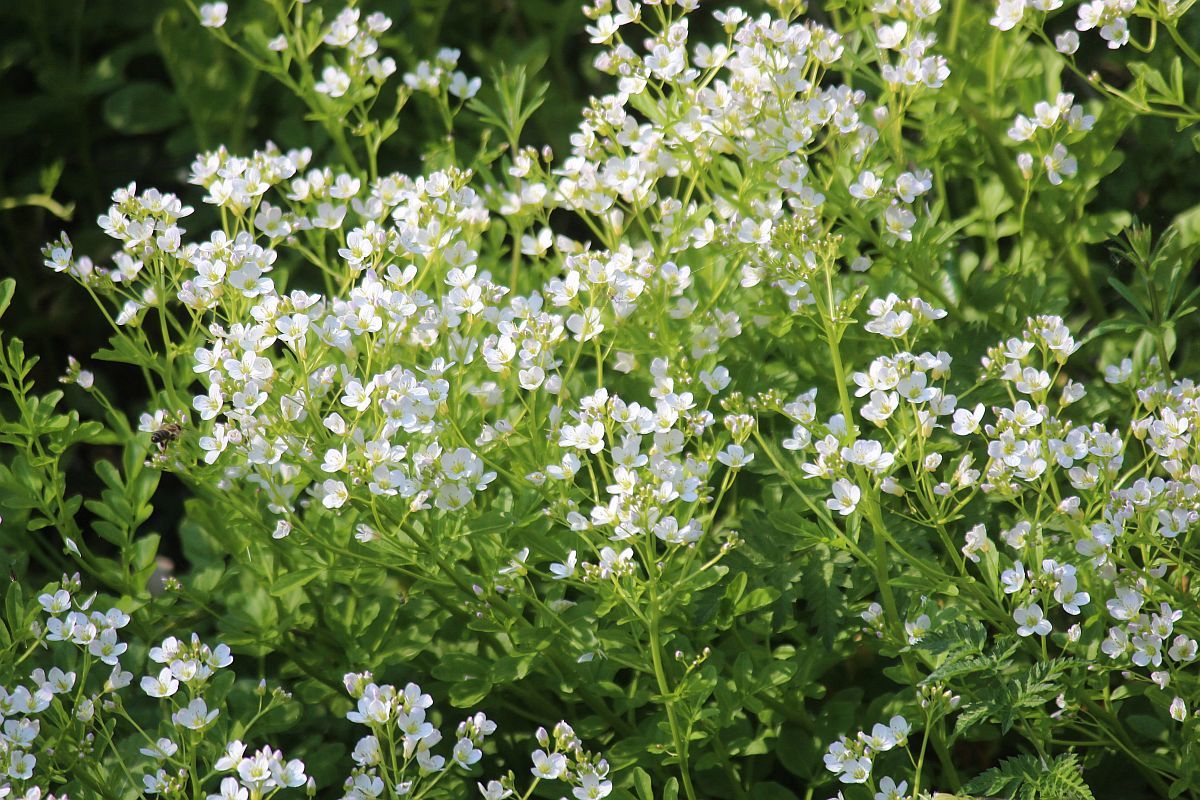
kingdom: Plantae
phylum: Tracheophyta
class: Magnoliopsida
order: Brassicales
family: Brassicaceae
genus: Cardamine
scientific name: Cardamine amara
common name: Large bitter-cress
